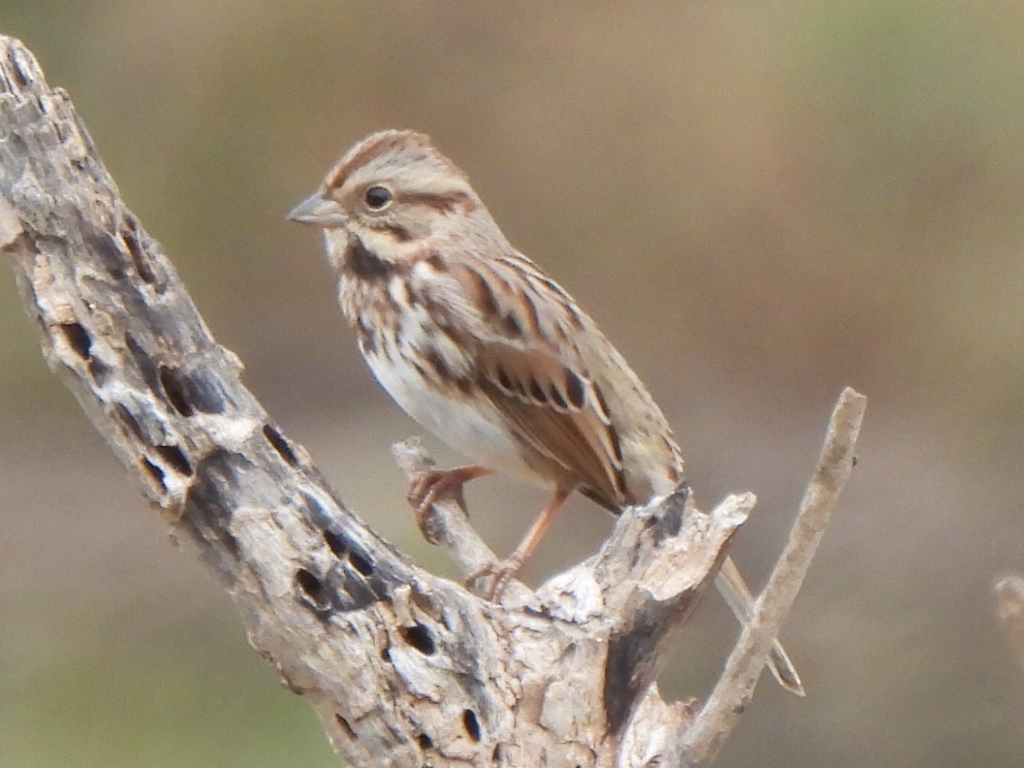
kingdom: Animalia
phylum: Chordata
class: Aves
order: Passeriformes
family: Passerellidae
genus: Melospiza
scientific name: Melospiza melodia
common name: Song sparrow
